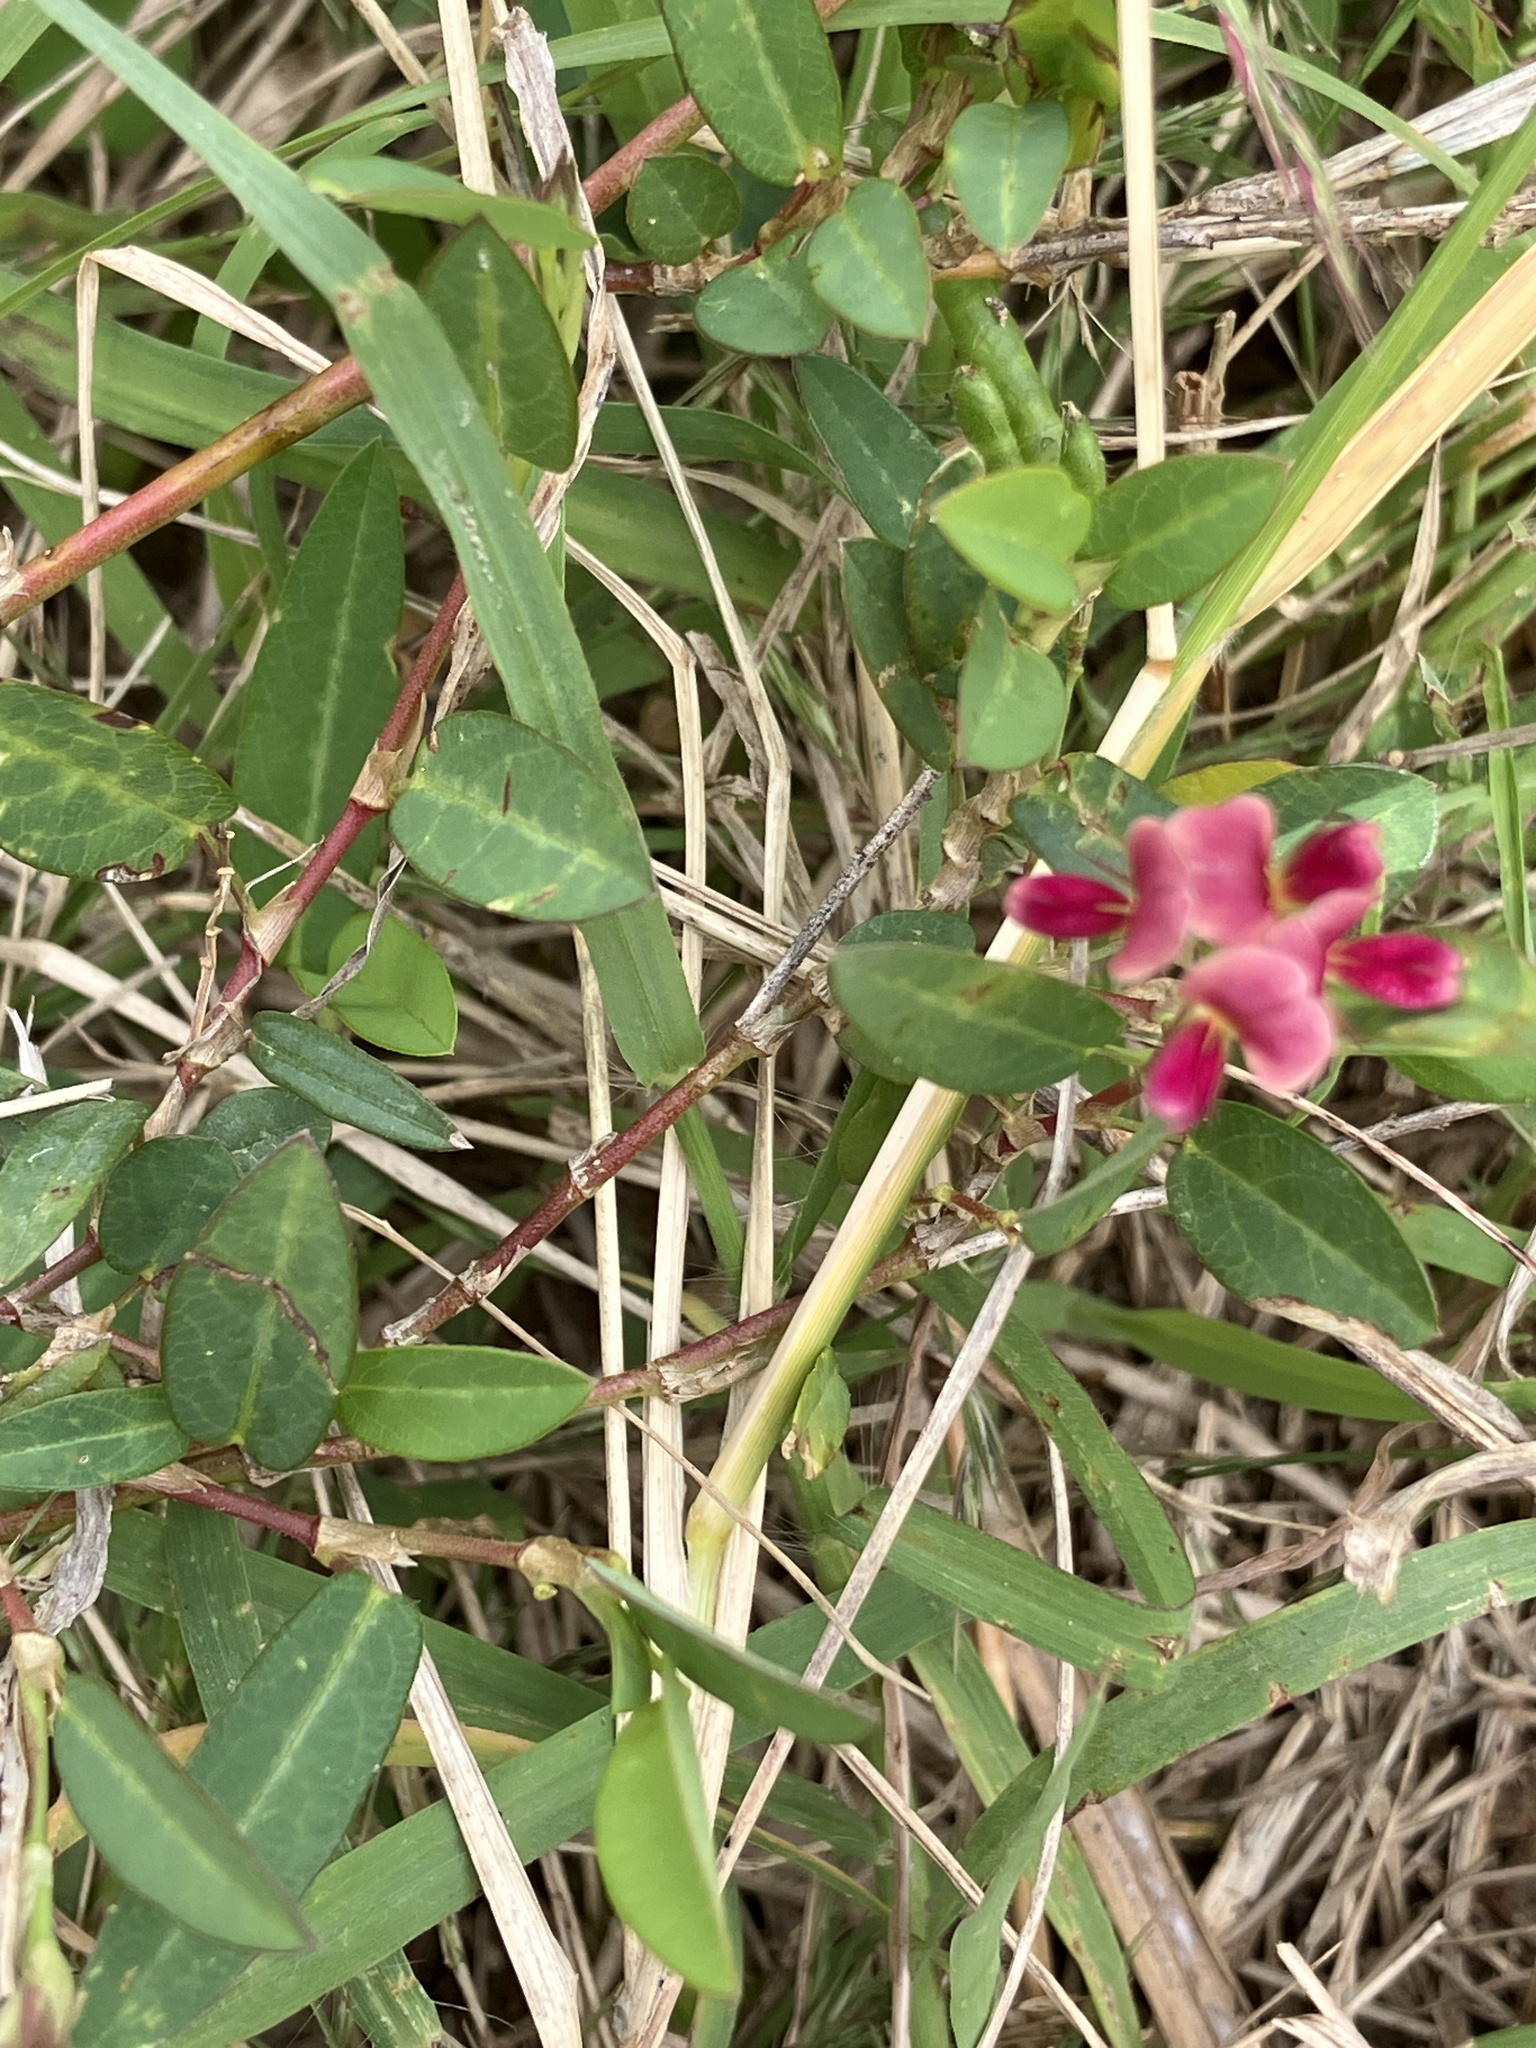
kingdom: Plantae
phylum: Tracheophyta
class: Magnoliopsida
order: Fabales
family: Fabaceae
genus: Alysicarpus
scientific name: Alysicarpus vaginalis
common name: White moneywort
